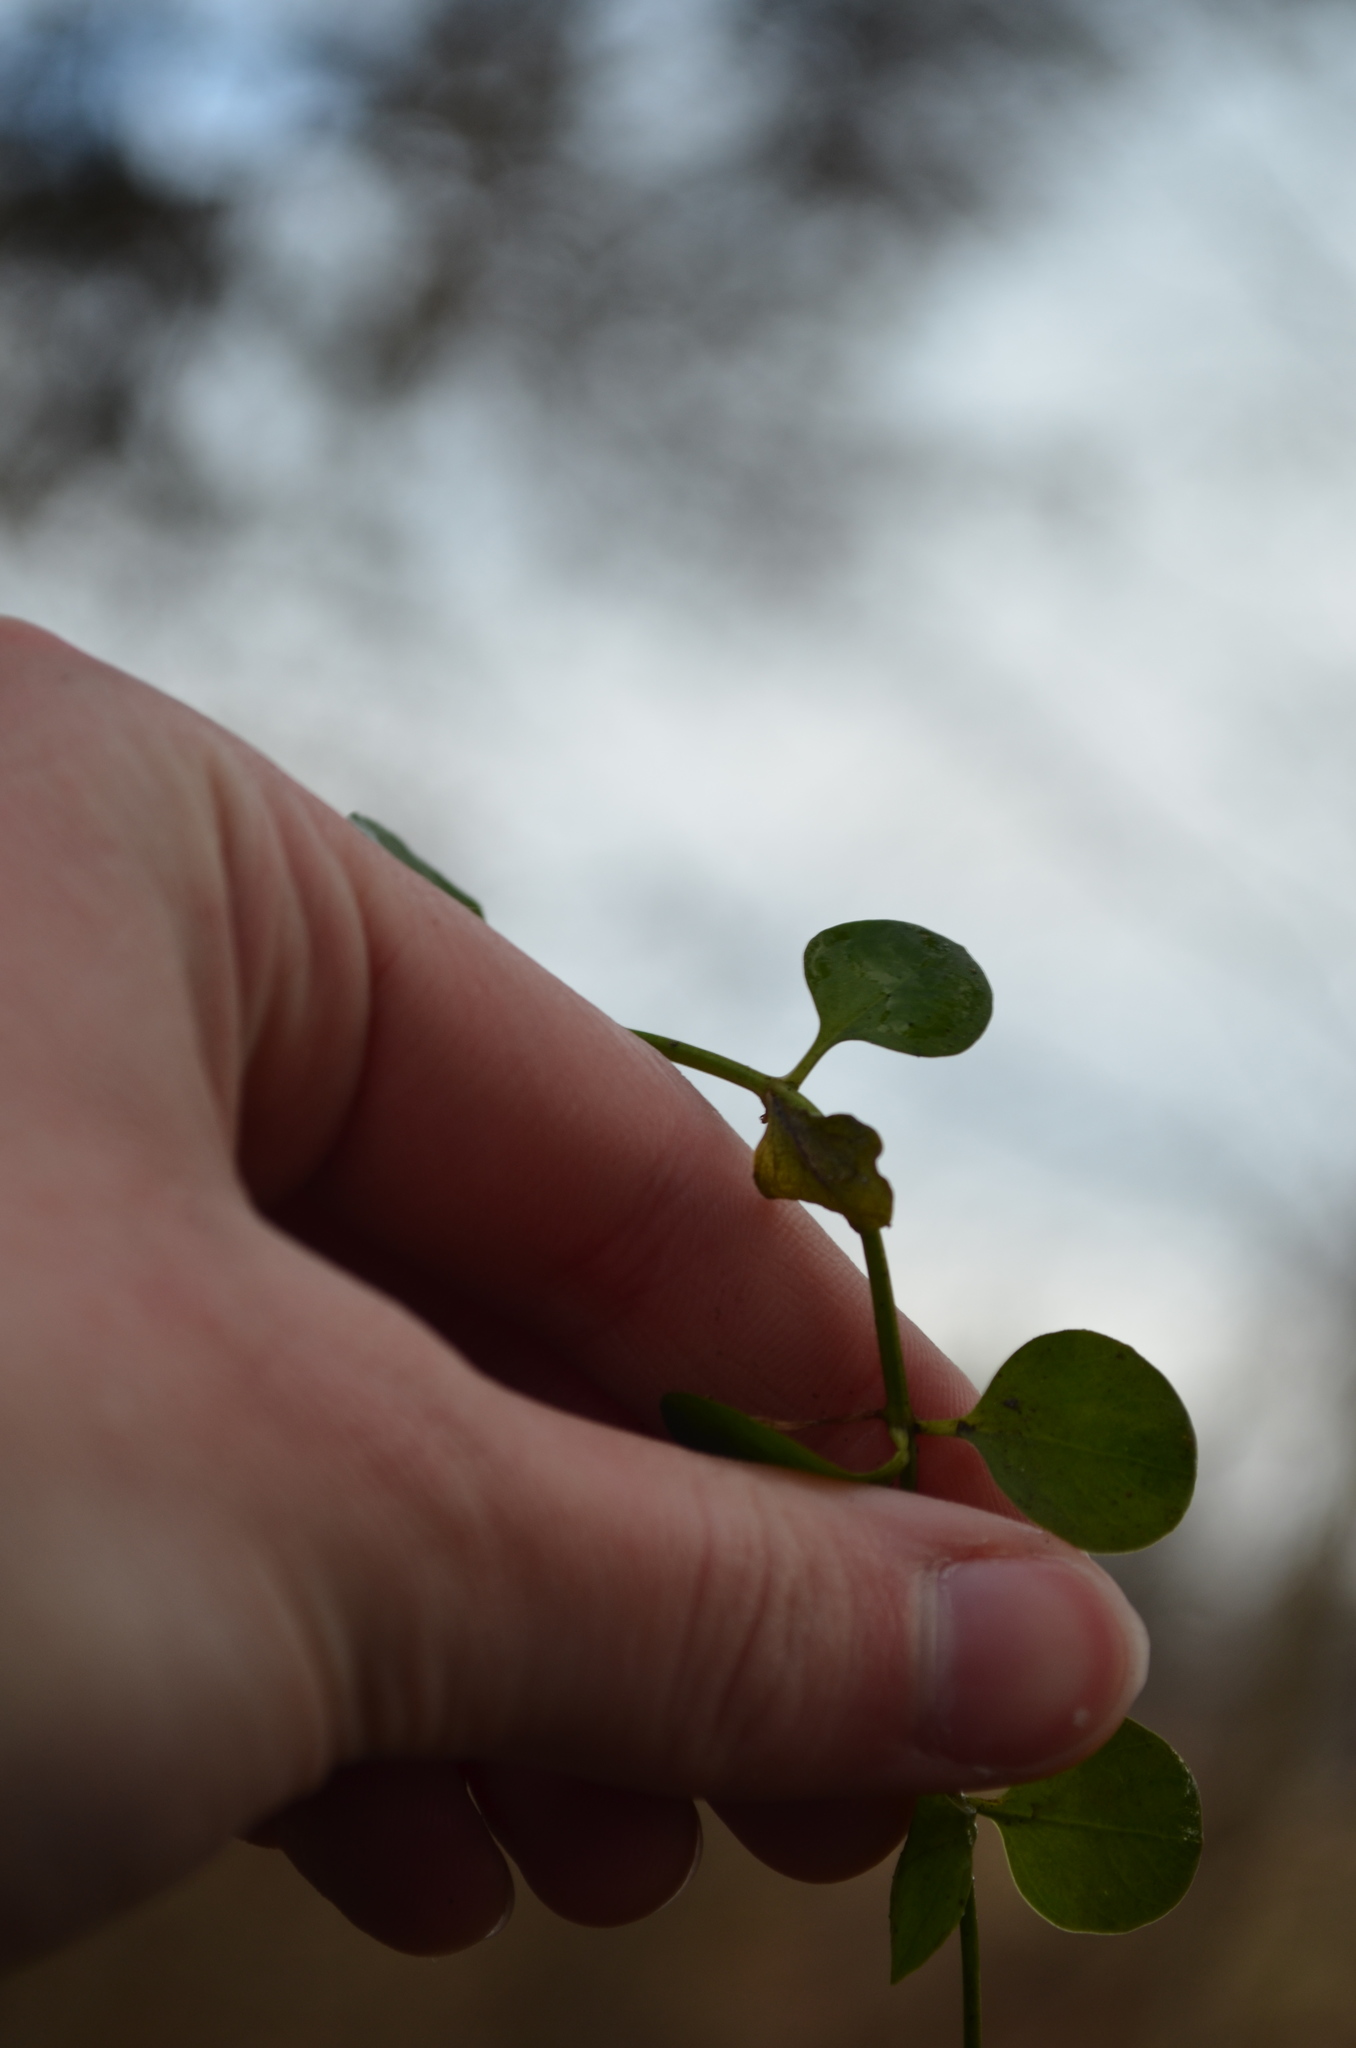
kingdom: Plantae
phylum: Tracheophyta
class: Magnoliopsida
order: Ericales
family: Primulaceae
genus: Lysimachia
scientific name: Lysimachia nummularia
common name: Moneywort
